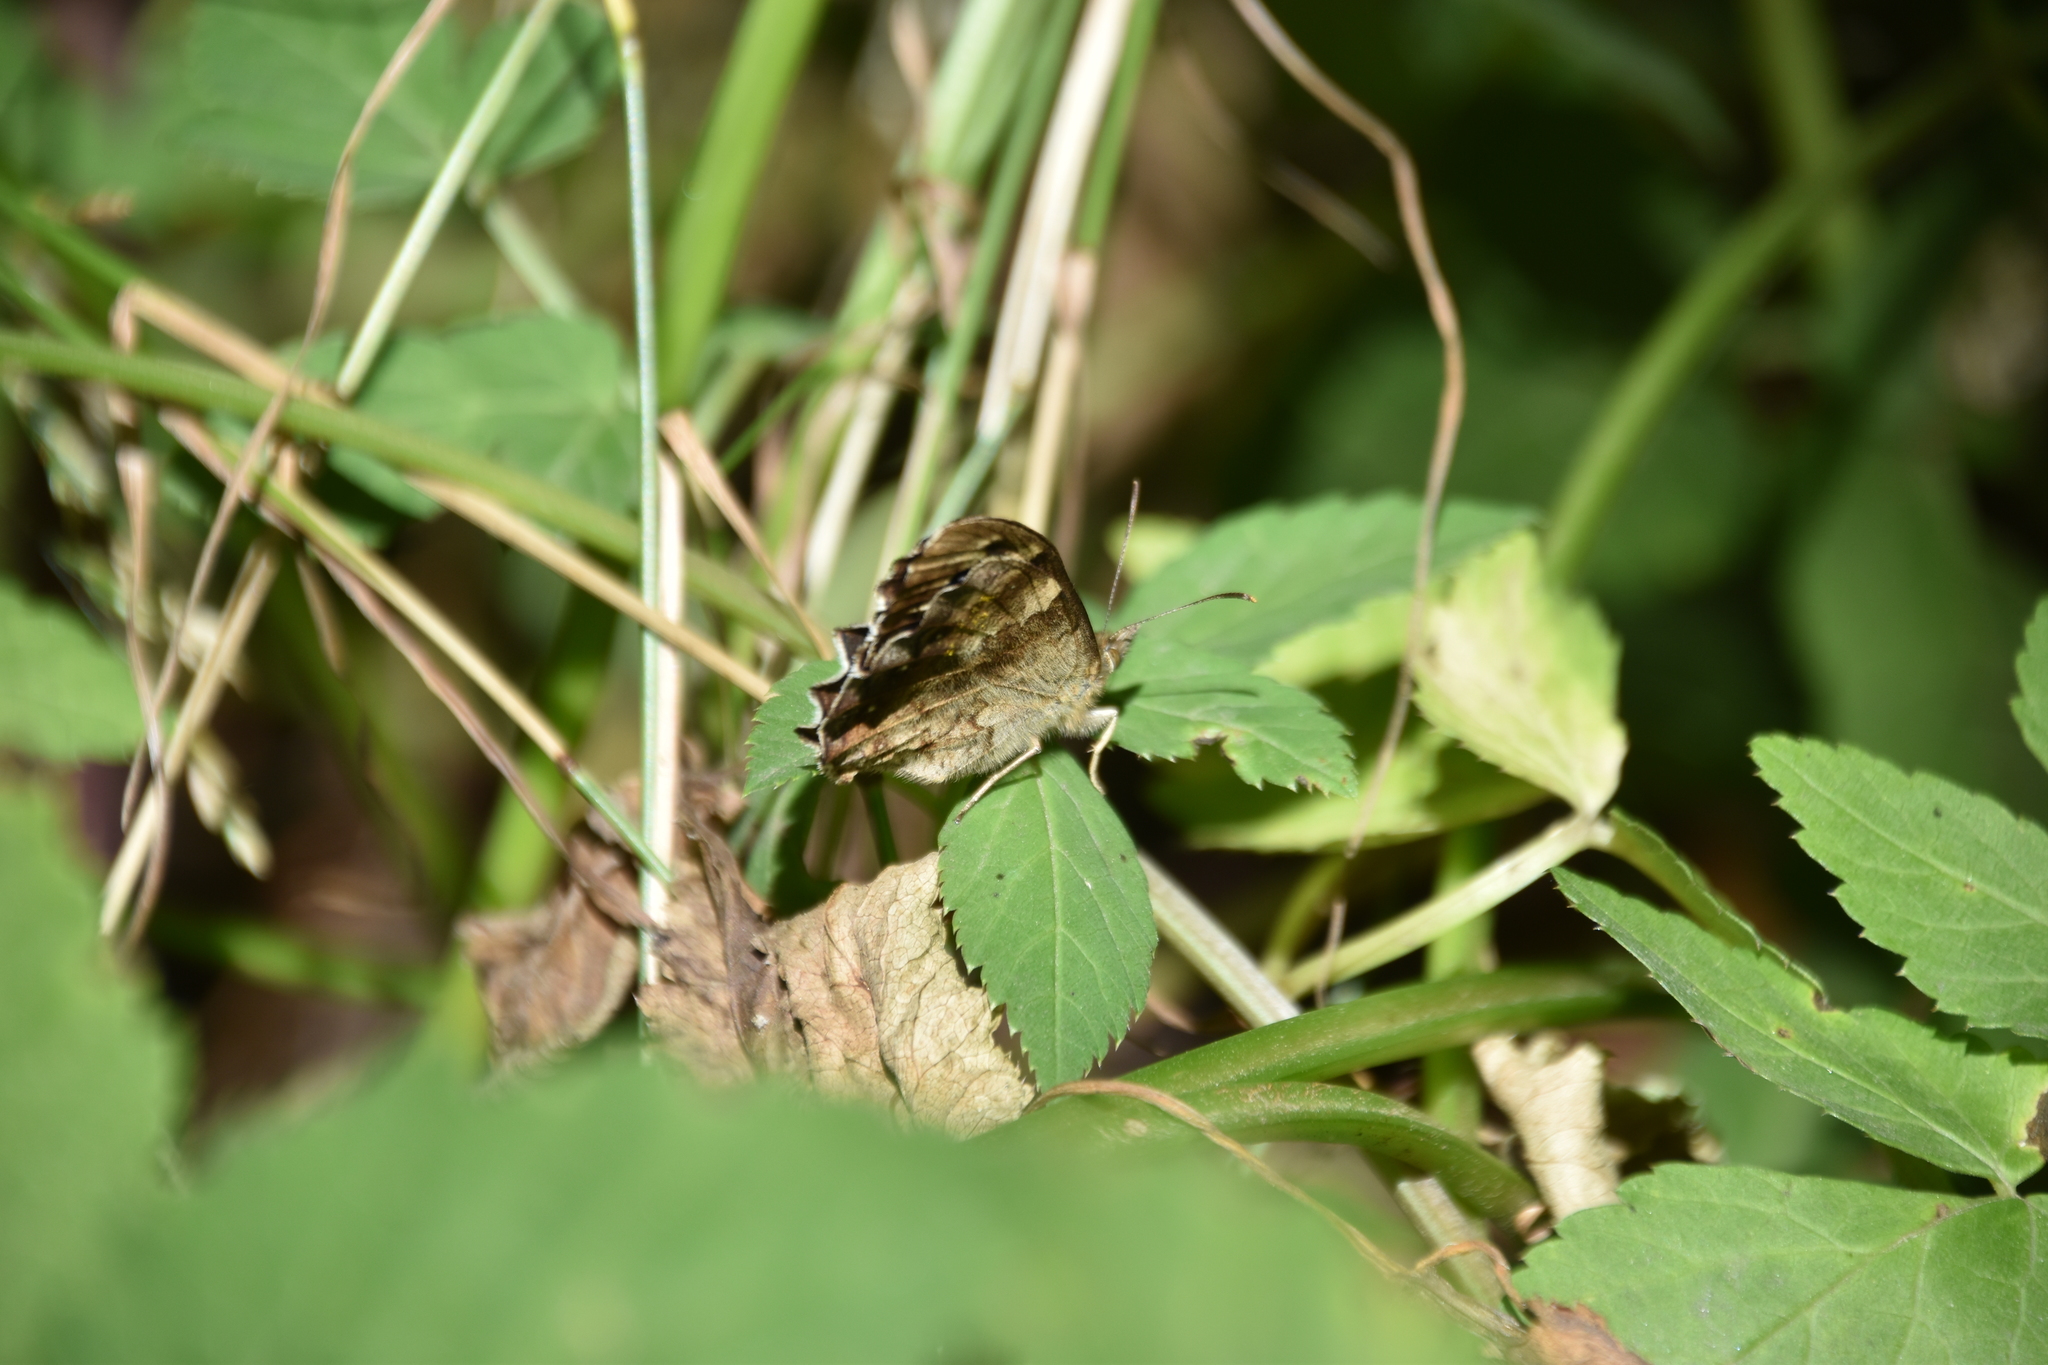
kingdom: Animalia
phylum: Arthropoda
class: Insecta
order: Lepidoptera
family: Nymphalidae
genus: Pararge
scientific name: Pararge aegeria
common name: Speckled wood
